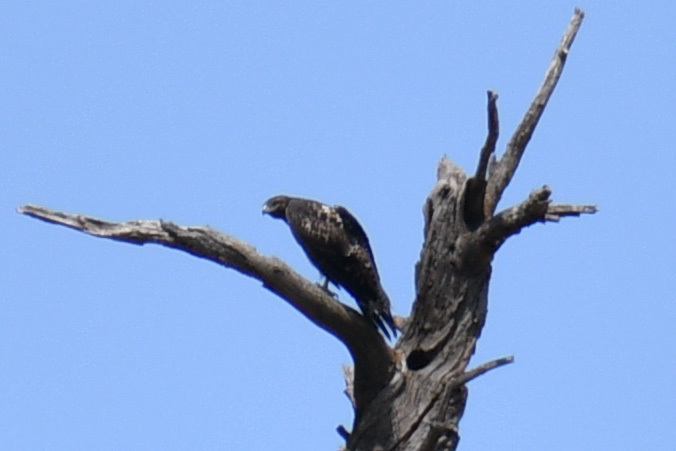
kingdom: Animalia
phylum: Chordata
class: Aves
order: Accipitriformes
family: Accipitridae
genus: Buteo
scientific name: Buteo jamaicensis
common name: Red-tailed hawk
